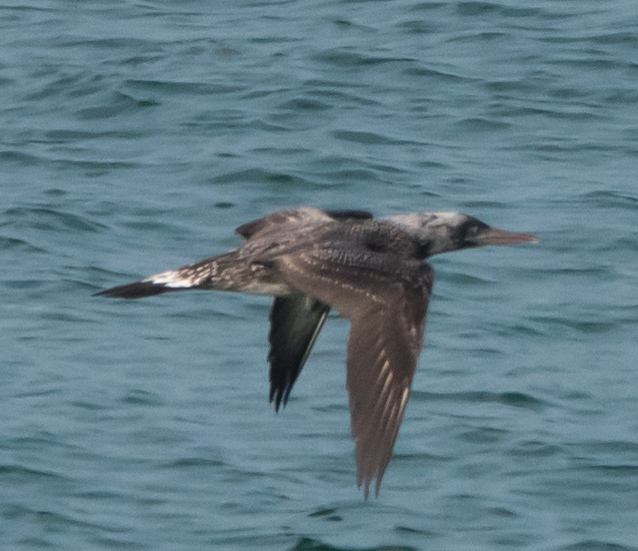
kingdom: Animalia
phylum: Chordata
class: Aves
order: Suliformes
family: Sulidae
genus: Morus
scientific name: Morus bassanus
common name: Northern gannet
